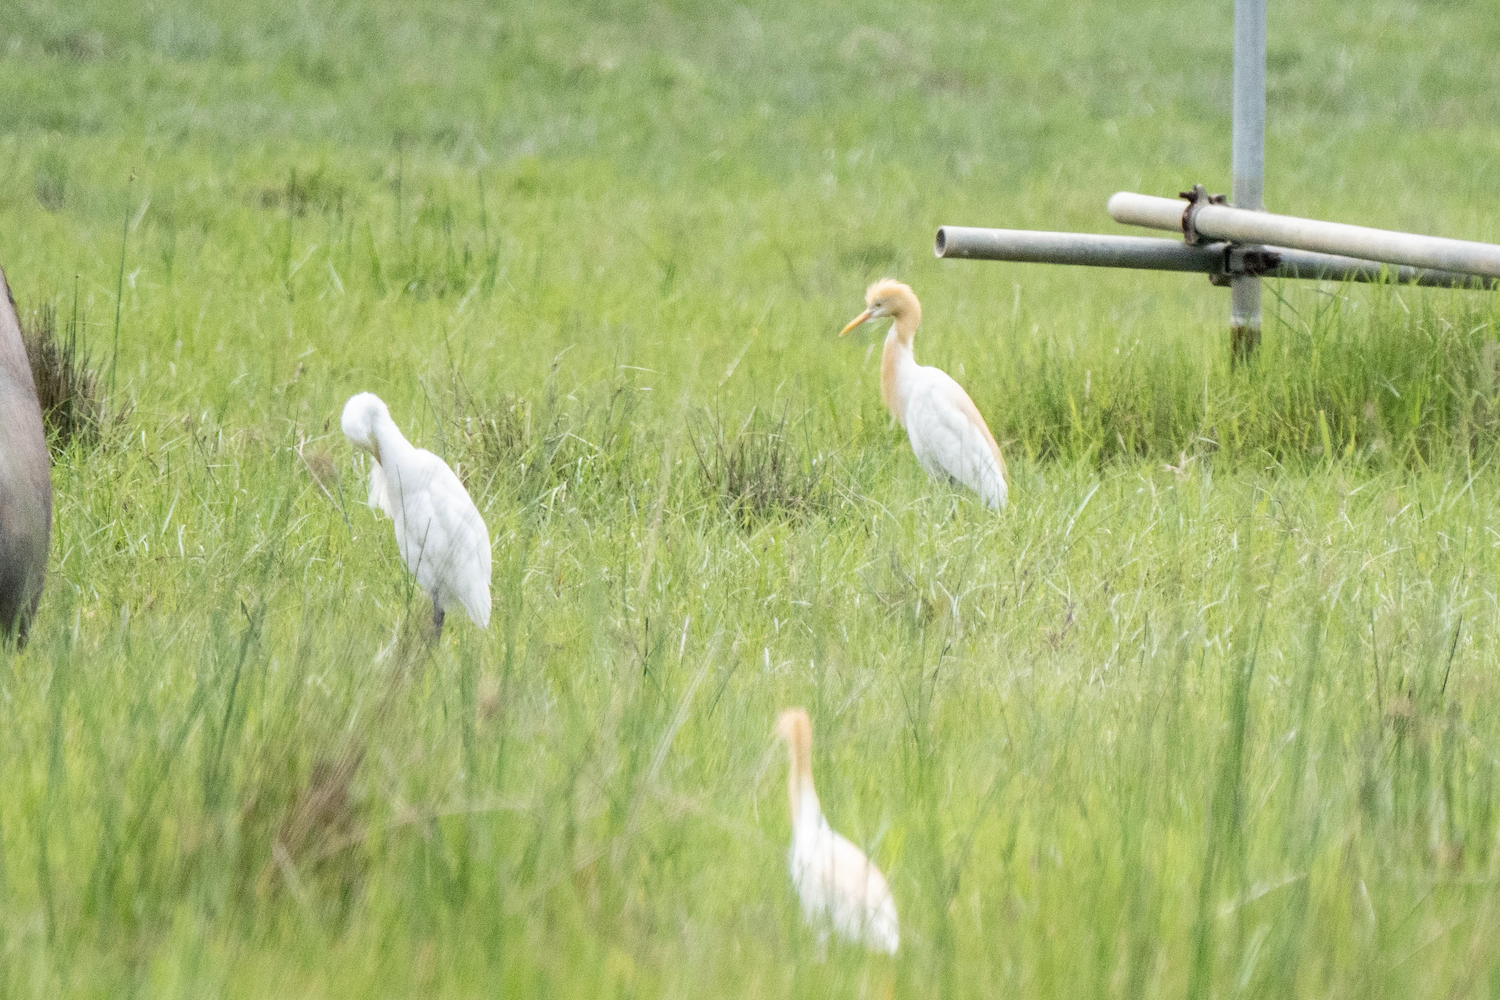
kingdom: Animalia
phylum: Chordata
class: Aves
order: Pelecaniformes
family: Ardeidae
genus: Bubulcus
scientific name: Bubulcus coromandus
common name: Eastern cattle egret
